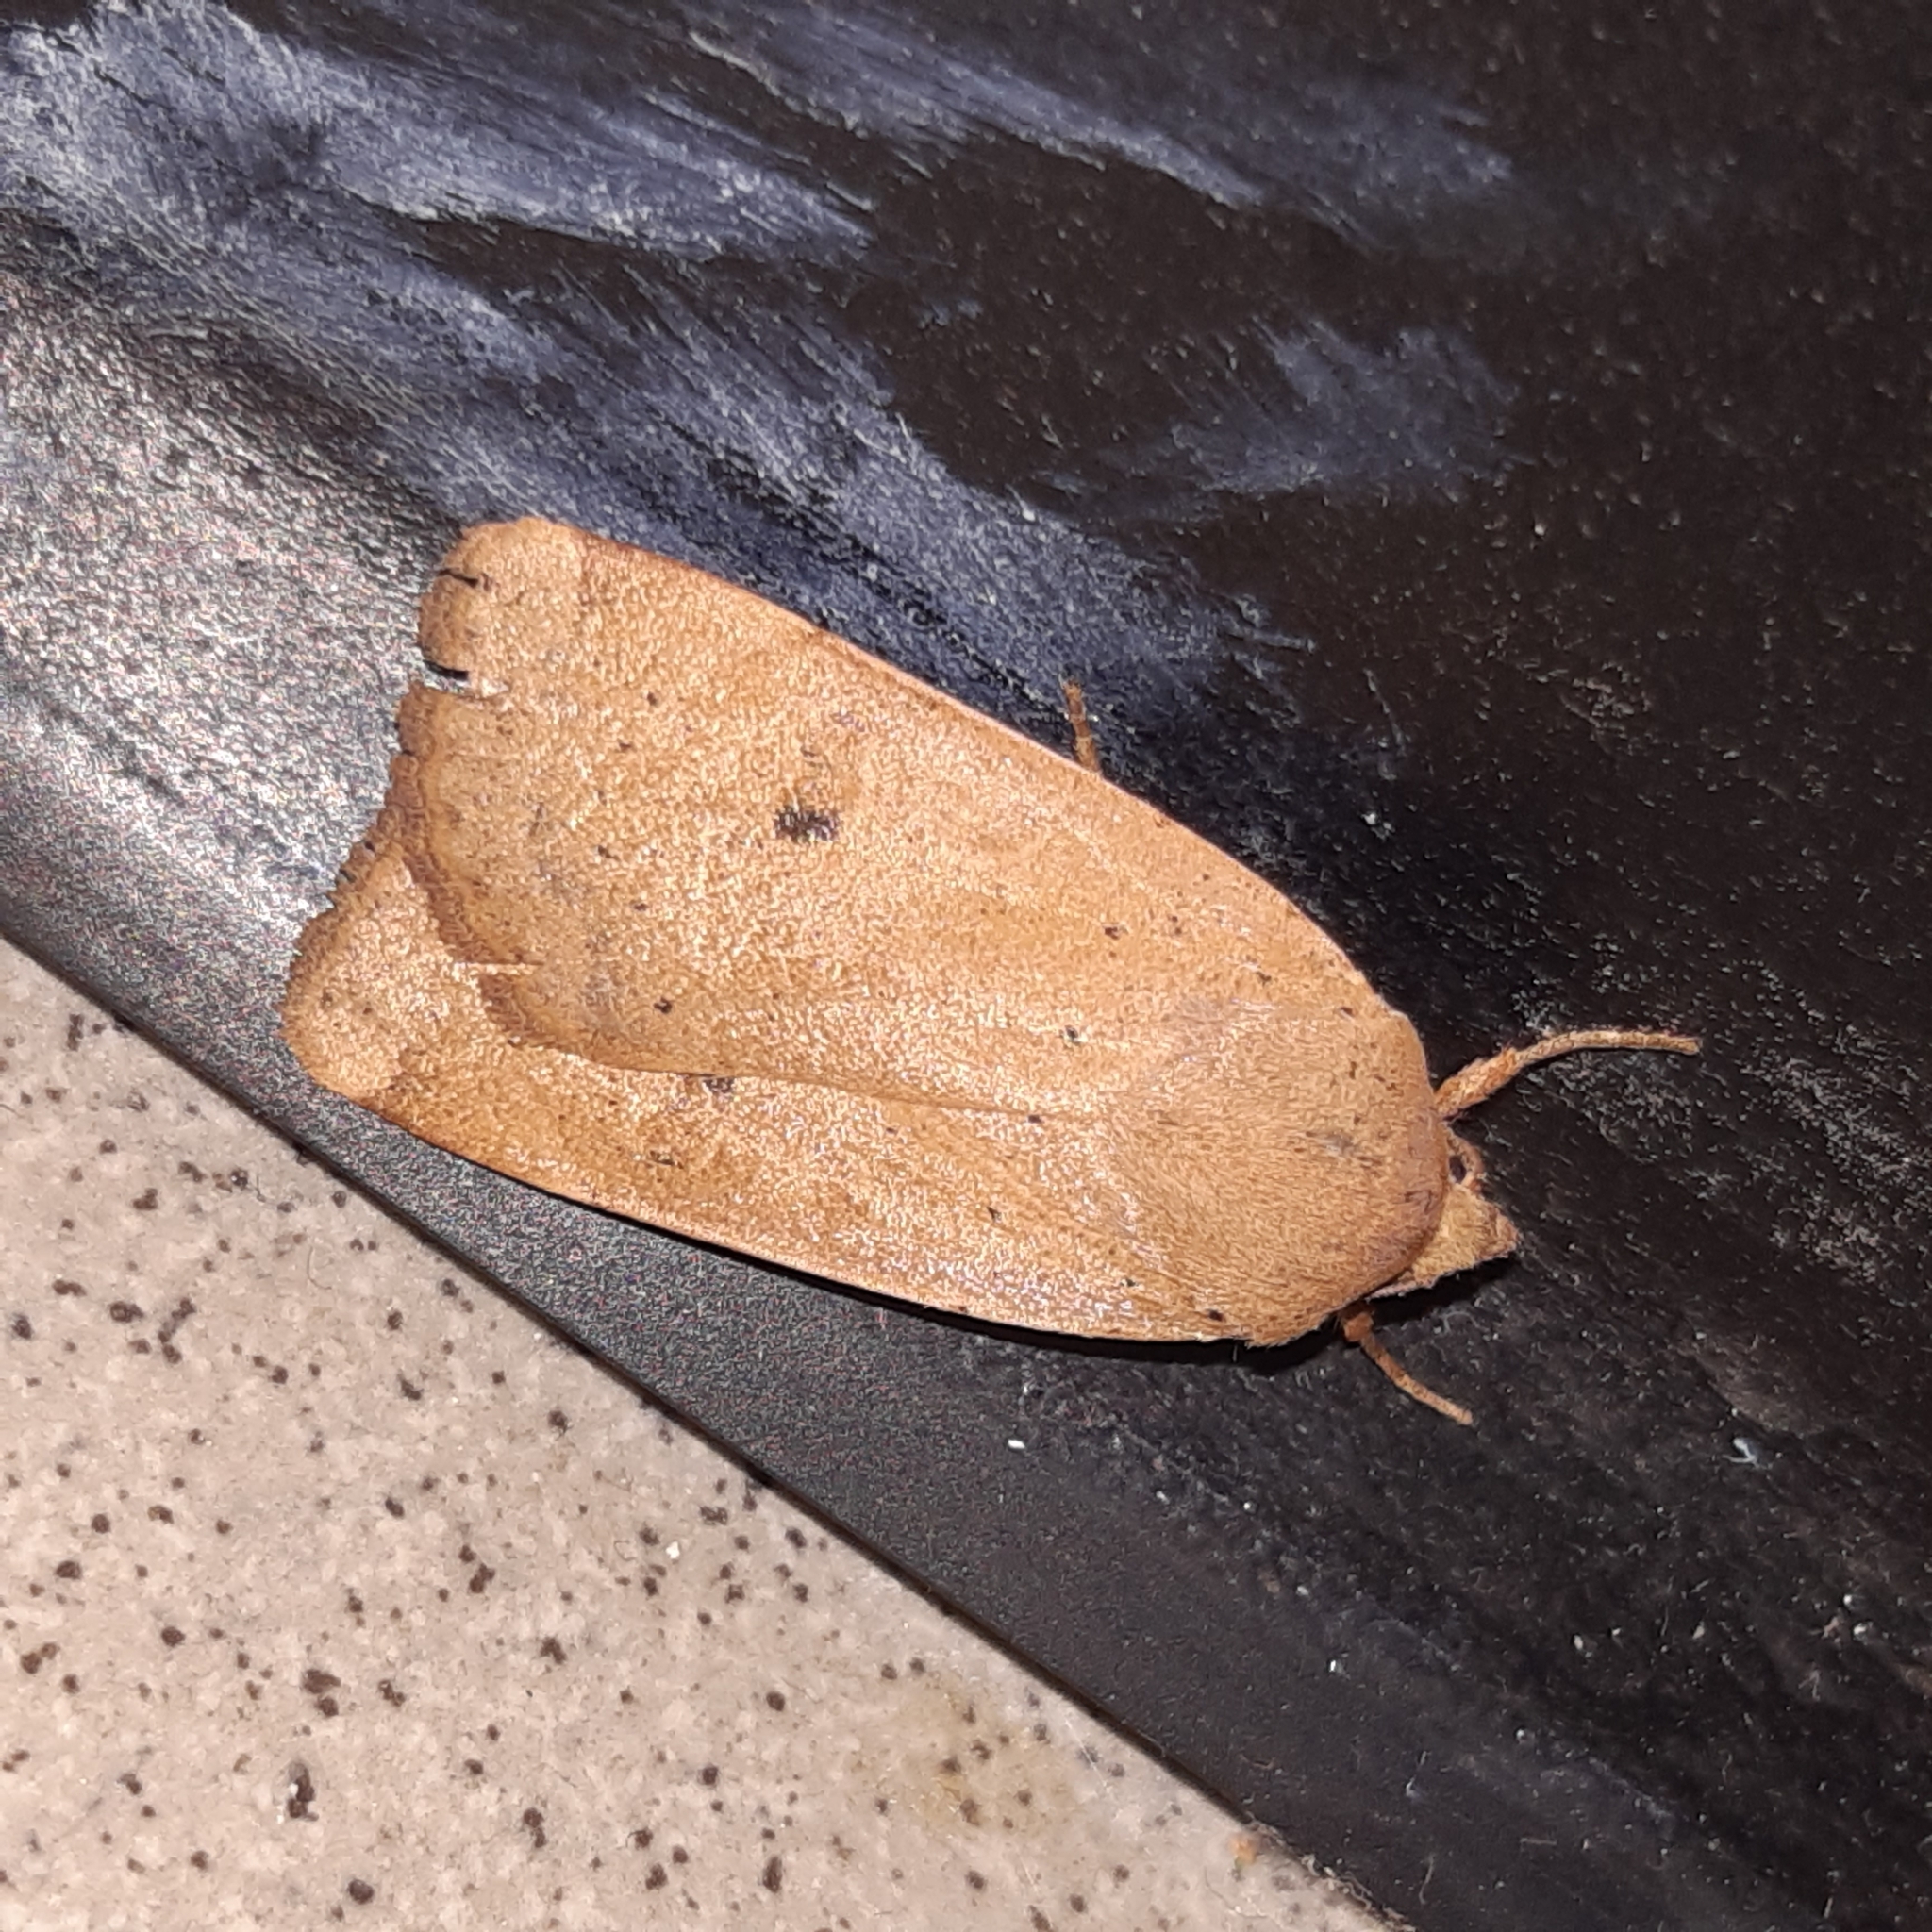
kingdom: Animalia
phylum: Arthropoda
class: Insecta
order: Lepidoptera
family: Noctuidae
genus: Noctua
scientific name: Noctua comes
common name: Lesser yellow underwing
